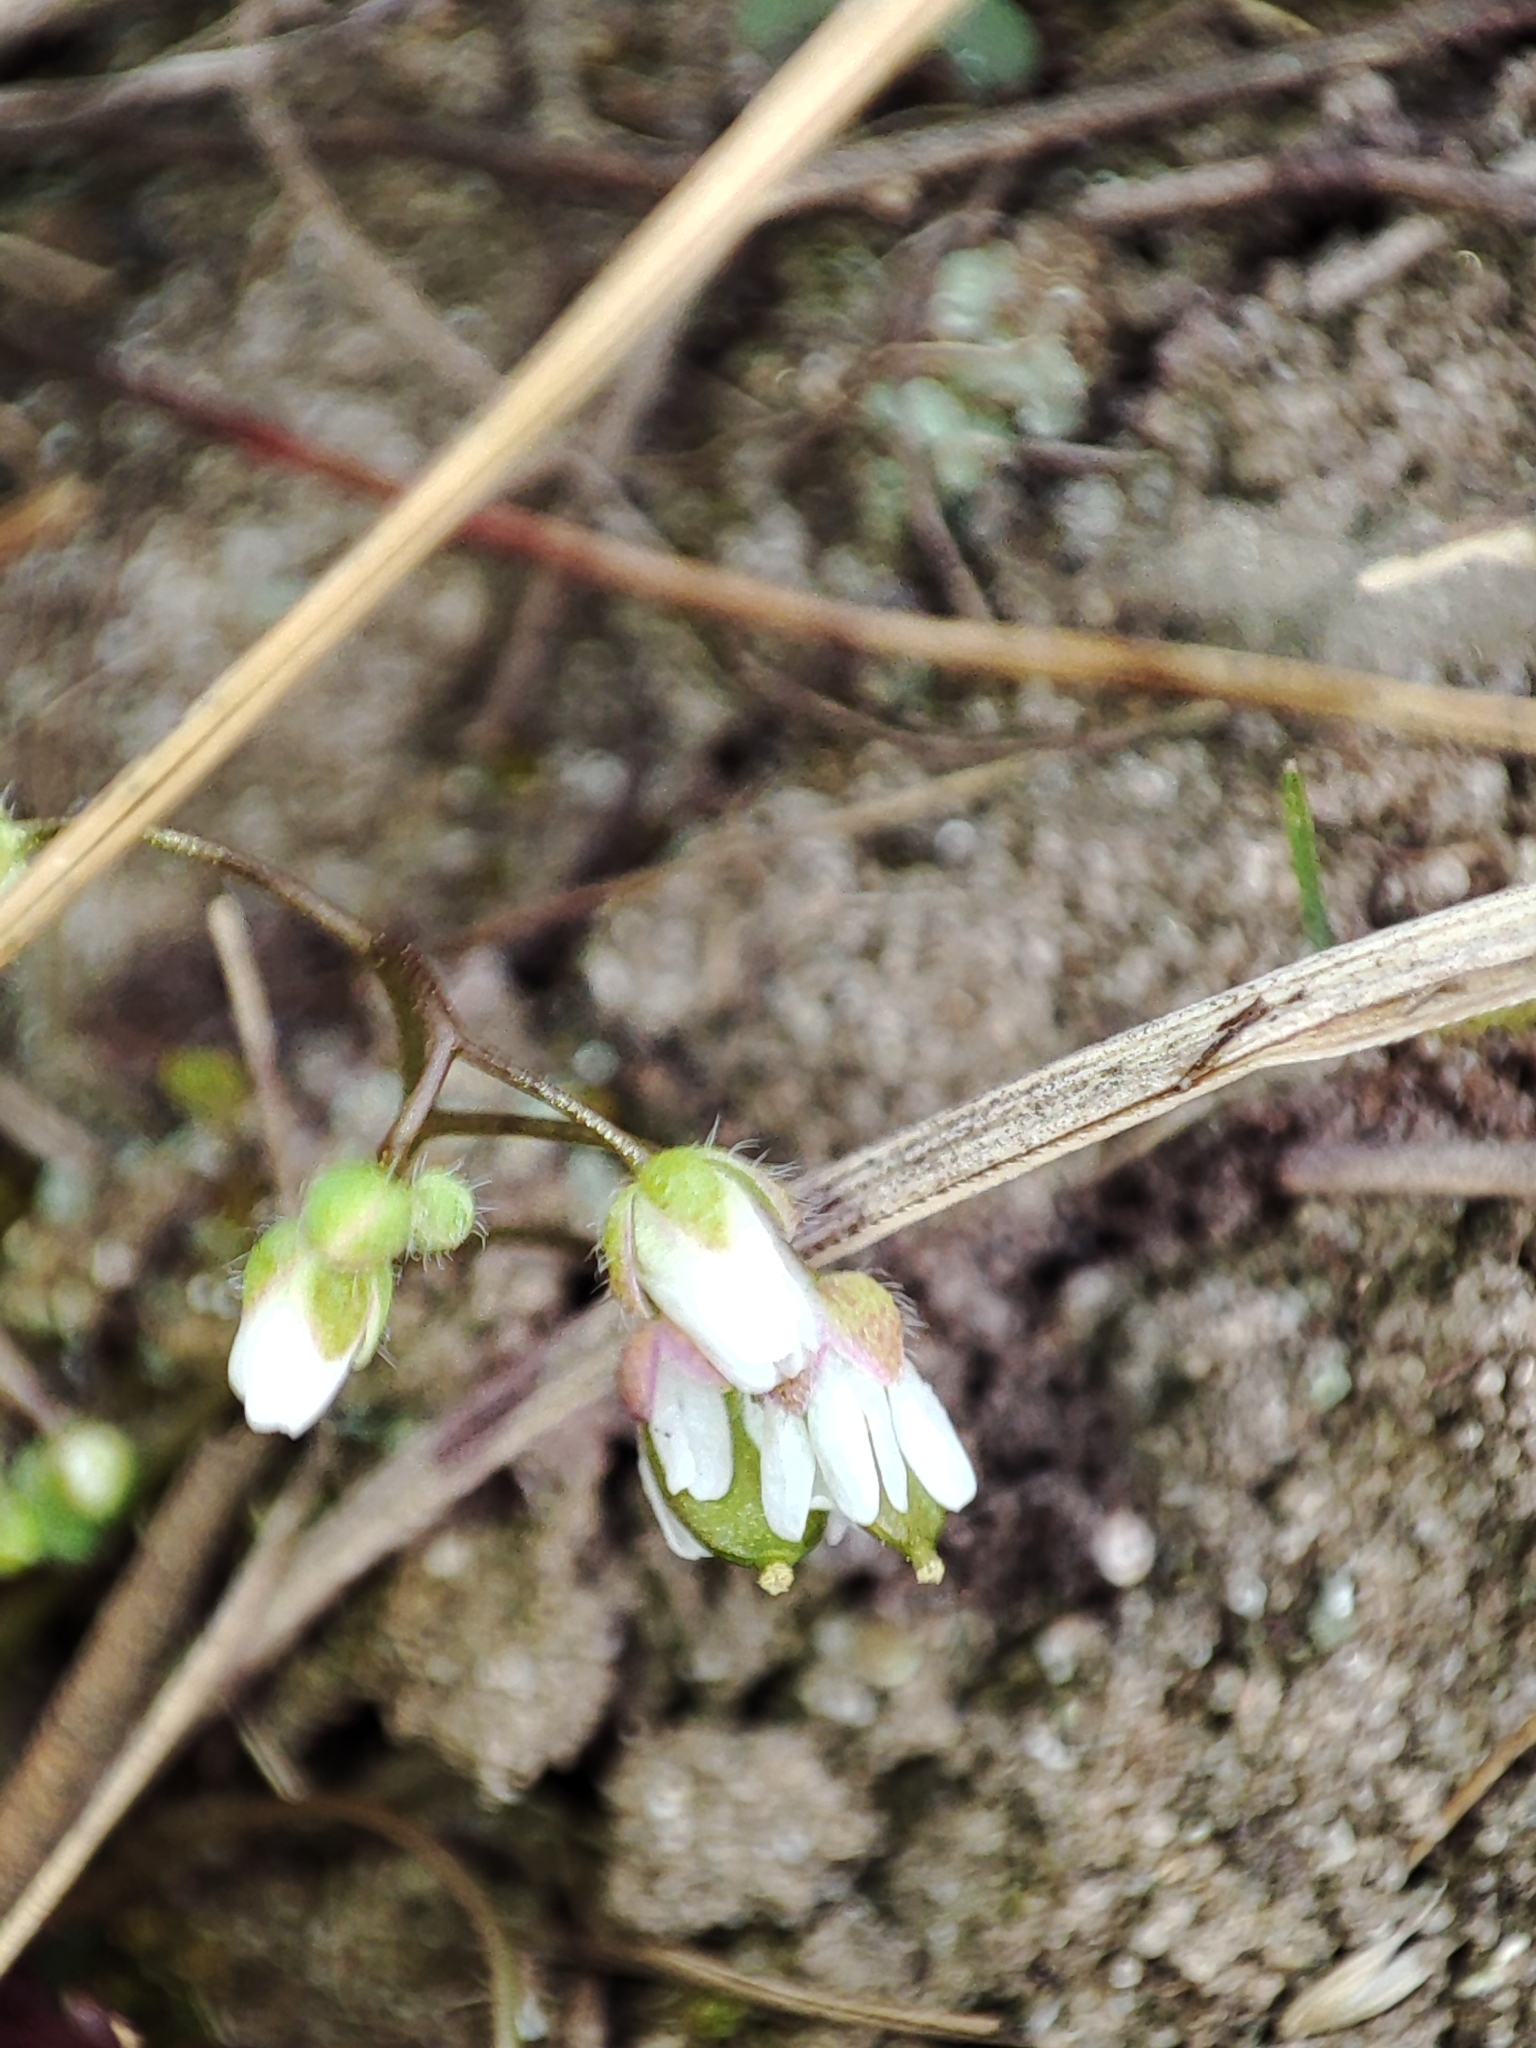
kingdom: Plantae
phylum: Tracheophyta
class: Magnoliopsida
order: Brassicales
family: Brassicaceae
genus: Draba
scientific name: Draba verna
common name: Spring draba
